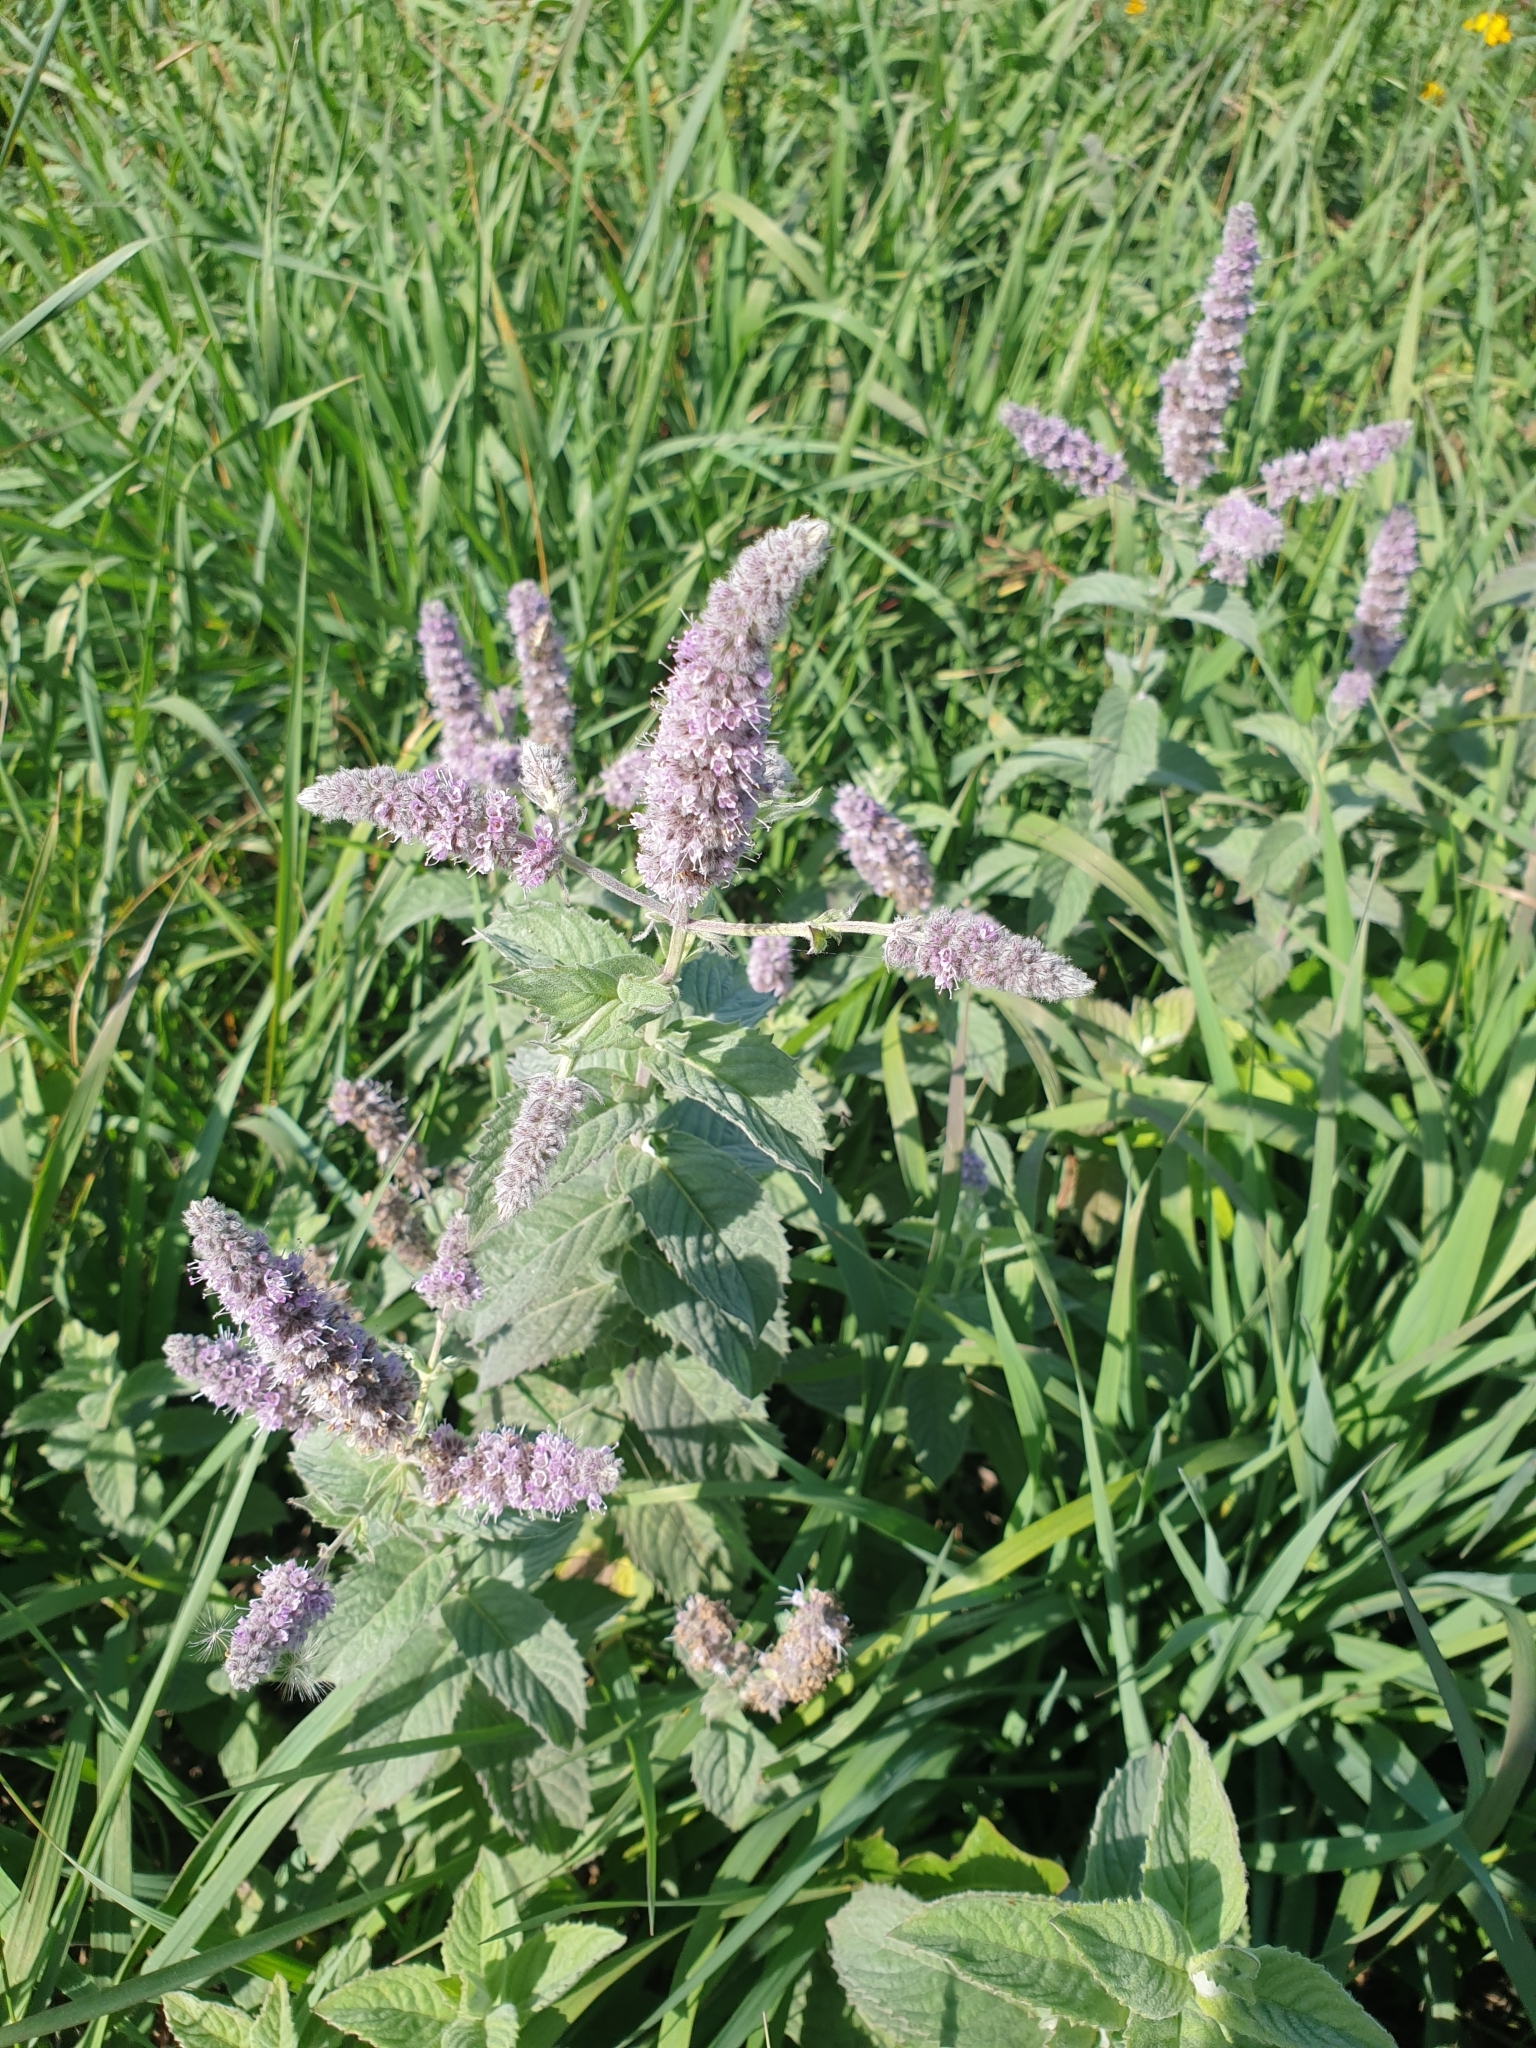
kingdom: Plantae
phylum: Tracheophyta
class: Magnoliopsida
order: Lamiales
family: Lamiaceae
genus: Mentha
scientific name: Mentha longifolia
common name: Horse mint
